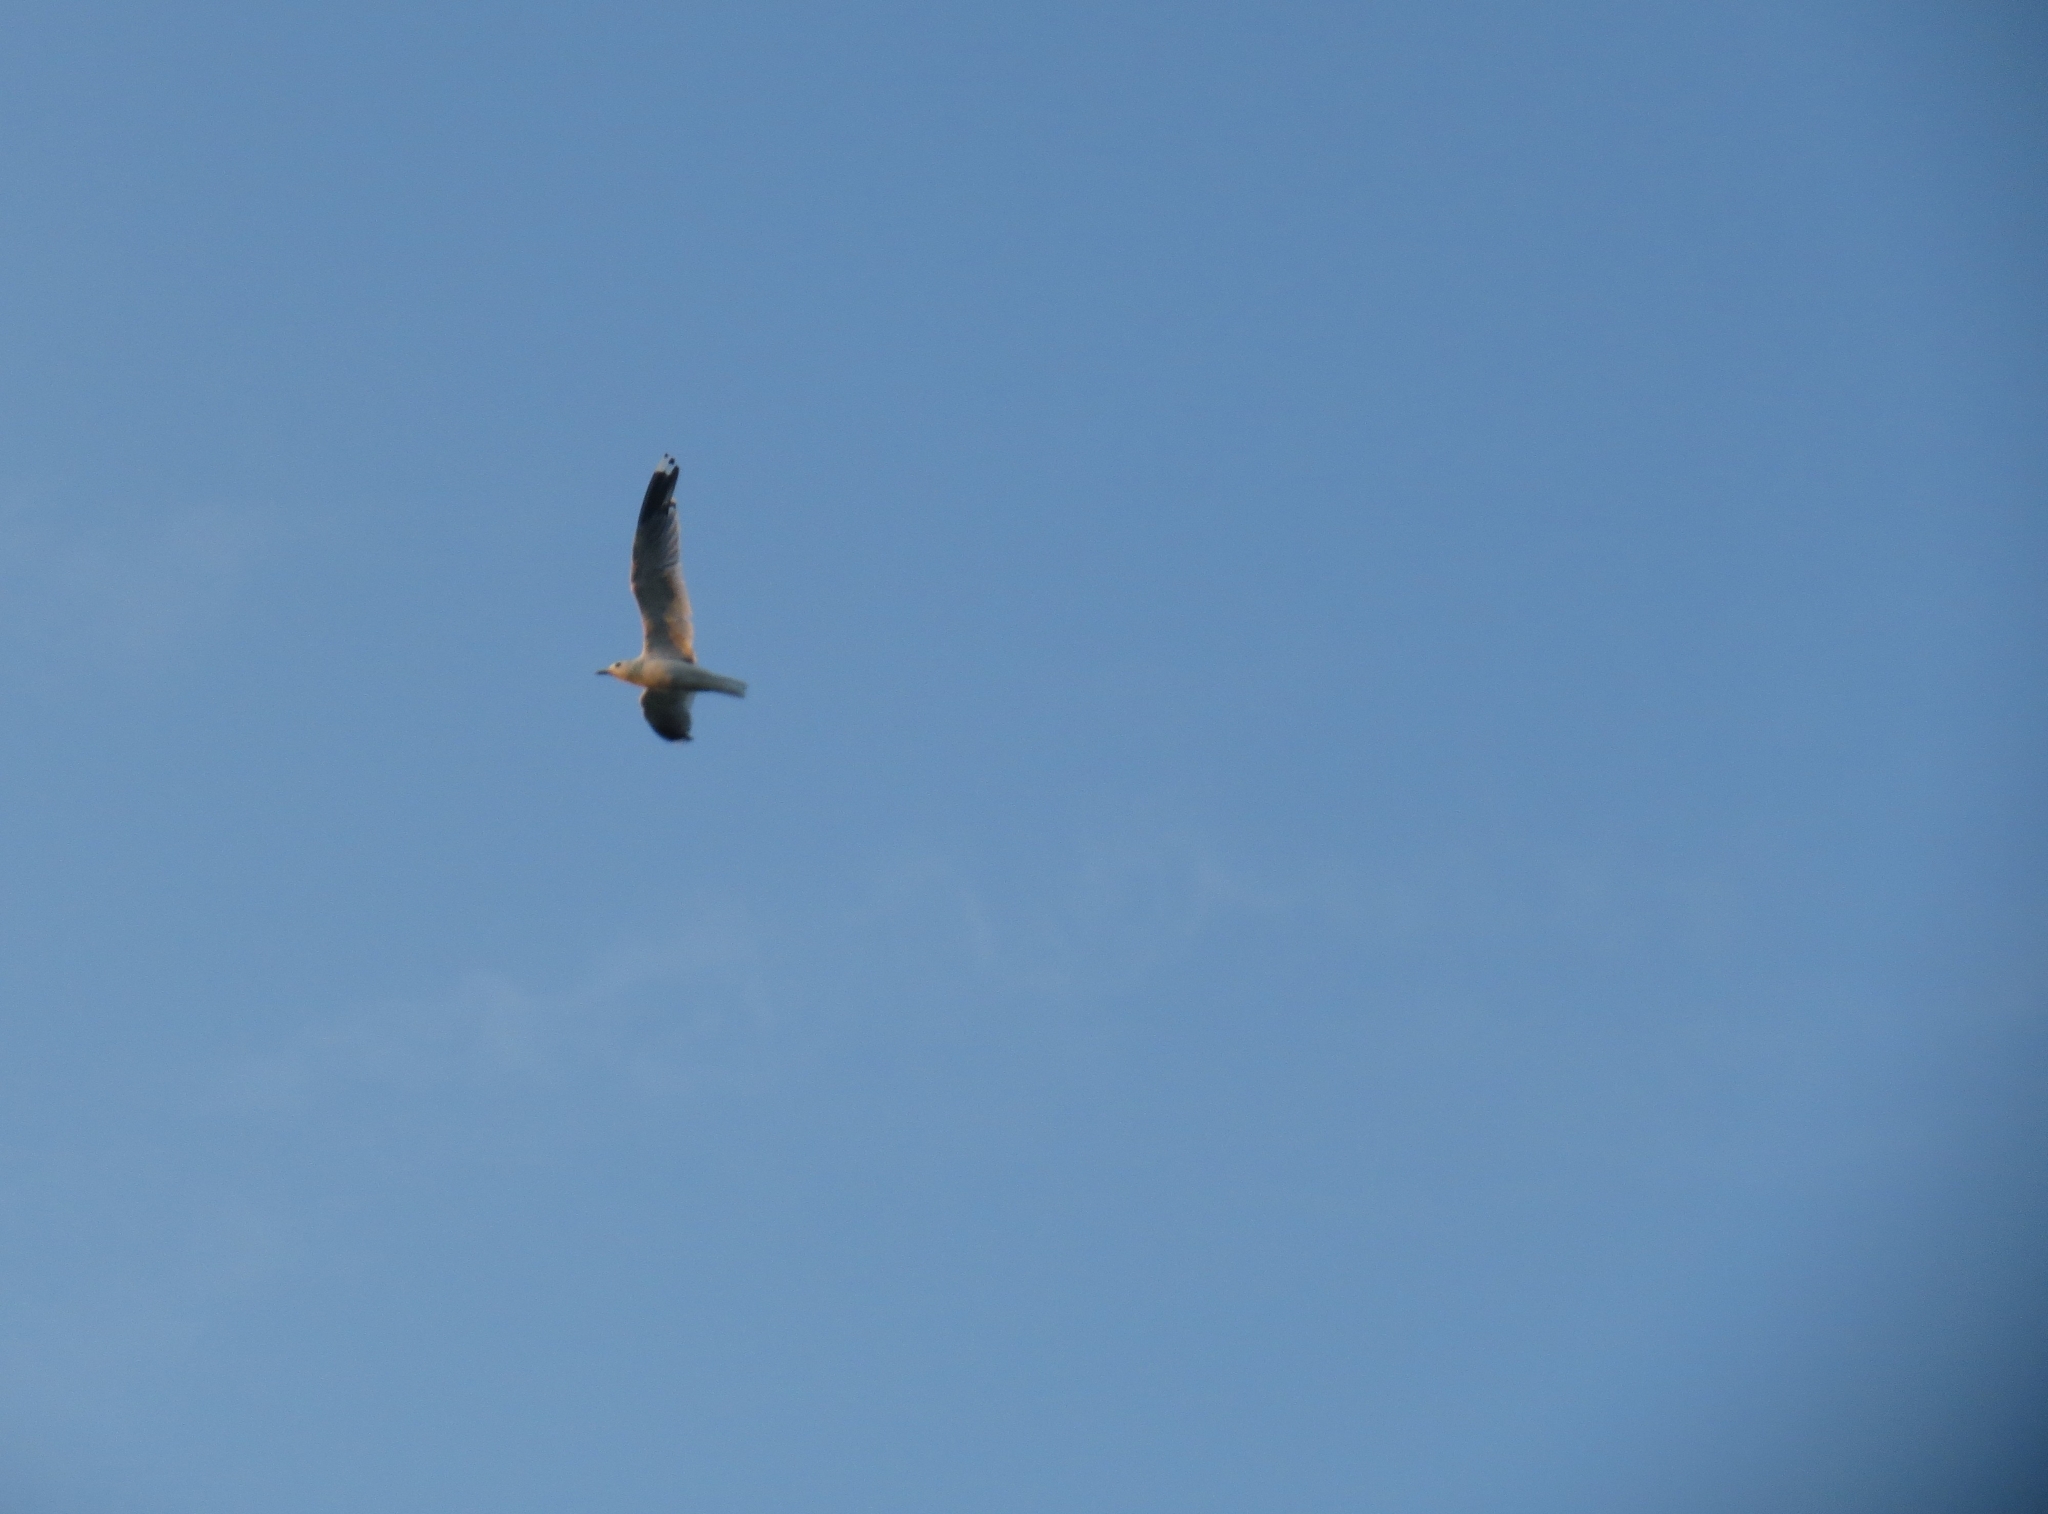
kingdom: Animalia
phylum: Chordata
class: Aves
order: Charadriiformes
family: Laridae
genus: Larus
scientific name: Larus canus
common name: Mew gull
